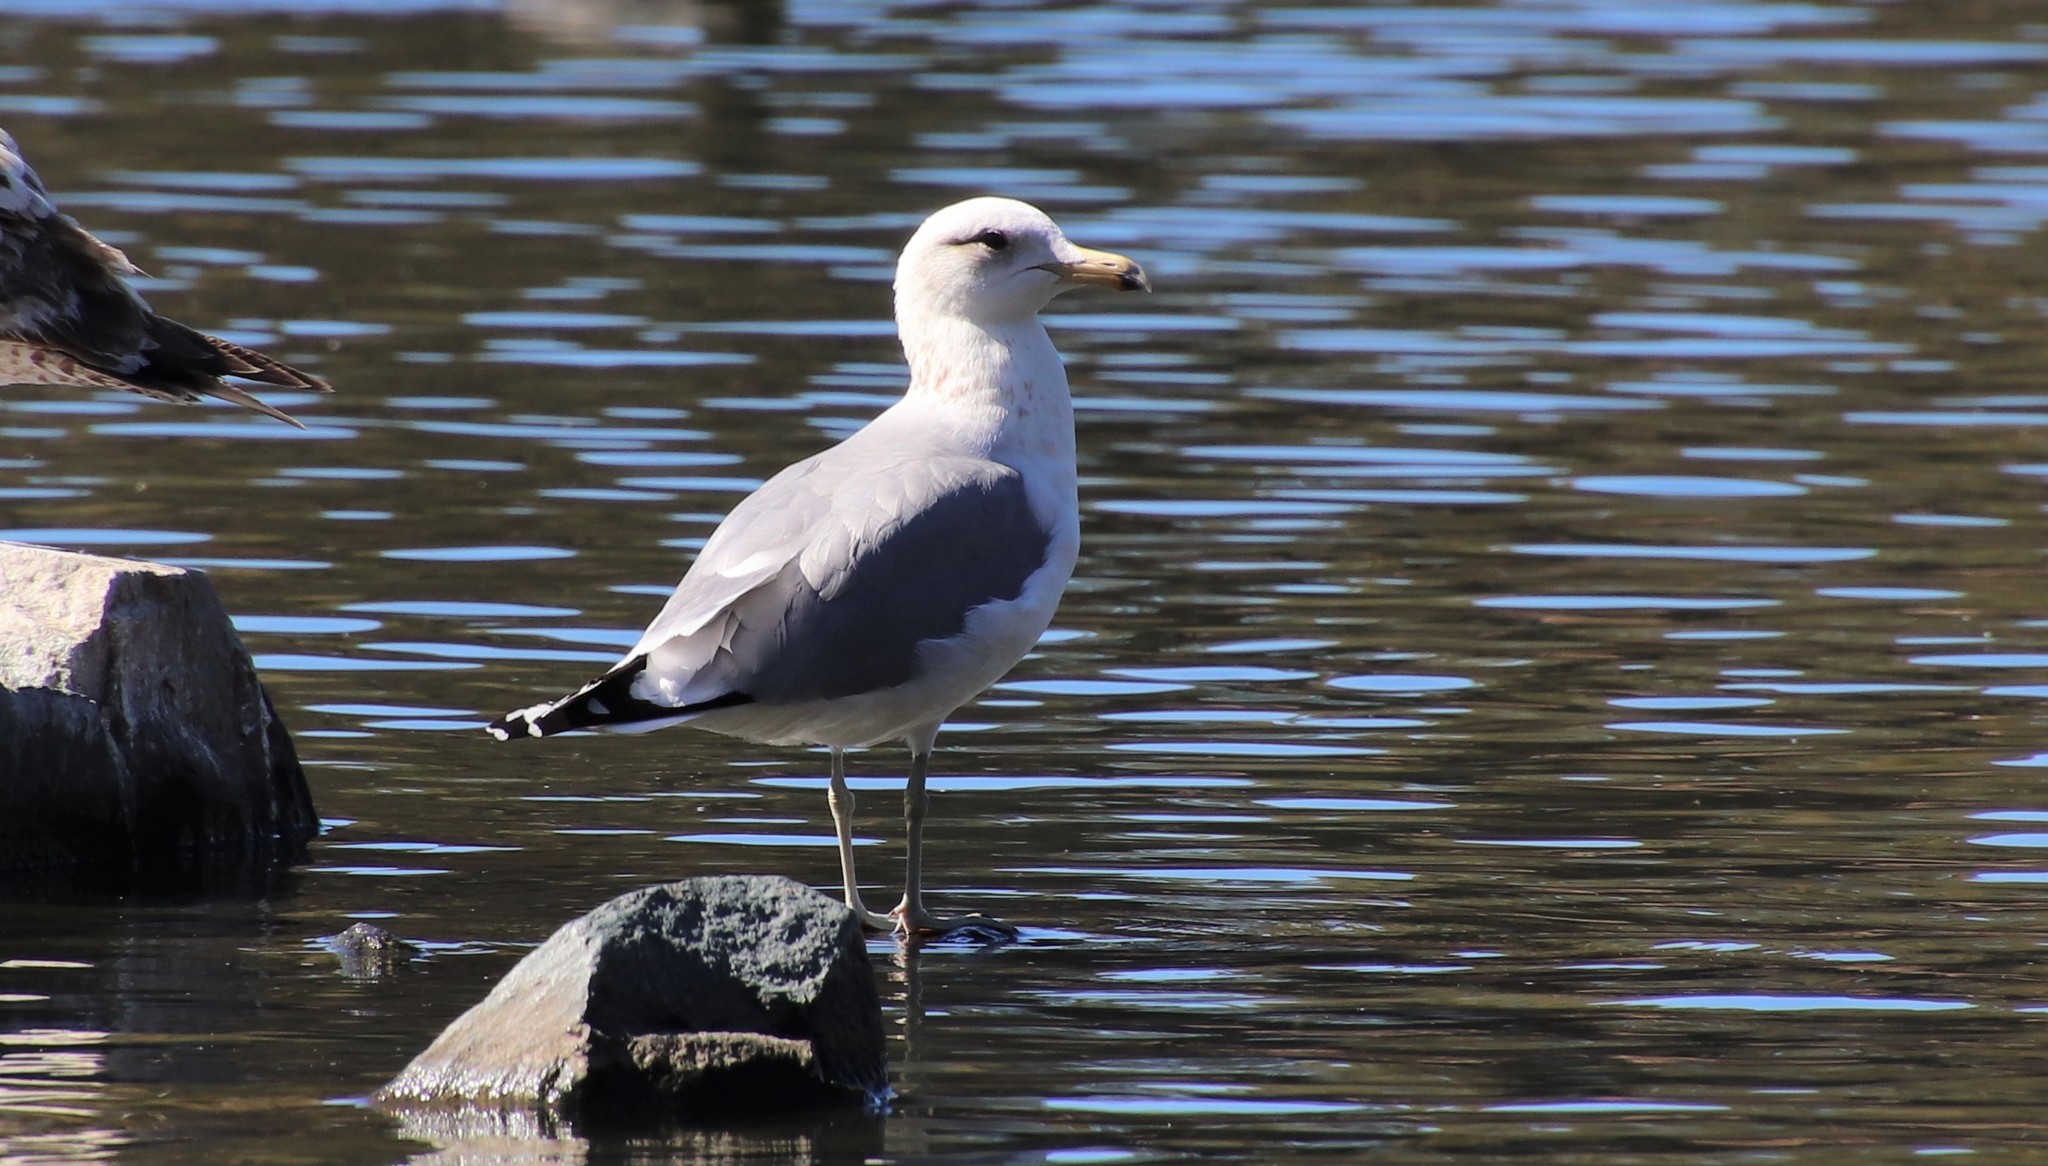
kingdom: Animalia
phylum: Chordata
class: Aves
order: Charadriiformes
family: Laridae
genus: Larus
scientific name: Larus californicus
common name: California gull
